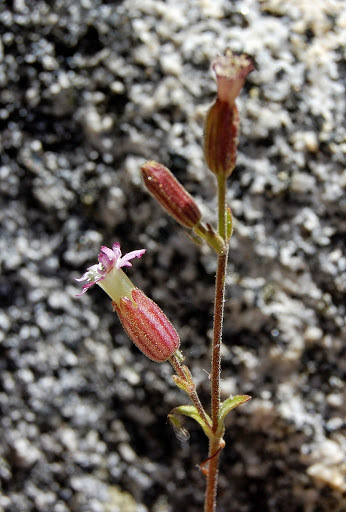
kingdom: Plantae
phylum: Tracheophyta
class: Magnoliopsida
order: Caryophyllales
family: Caryophyllaceae
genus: Silene
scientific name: Silene grayi
